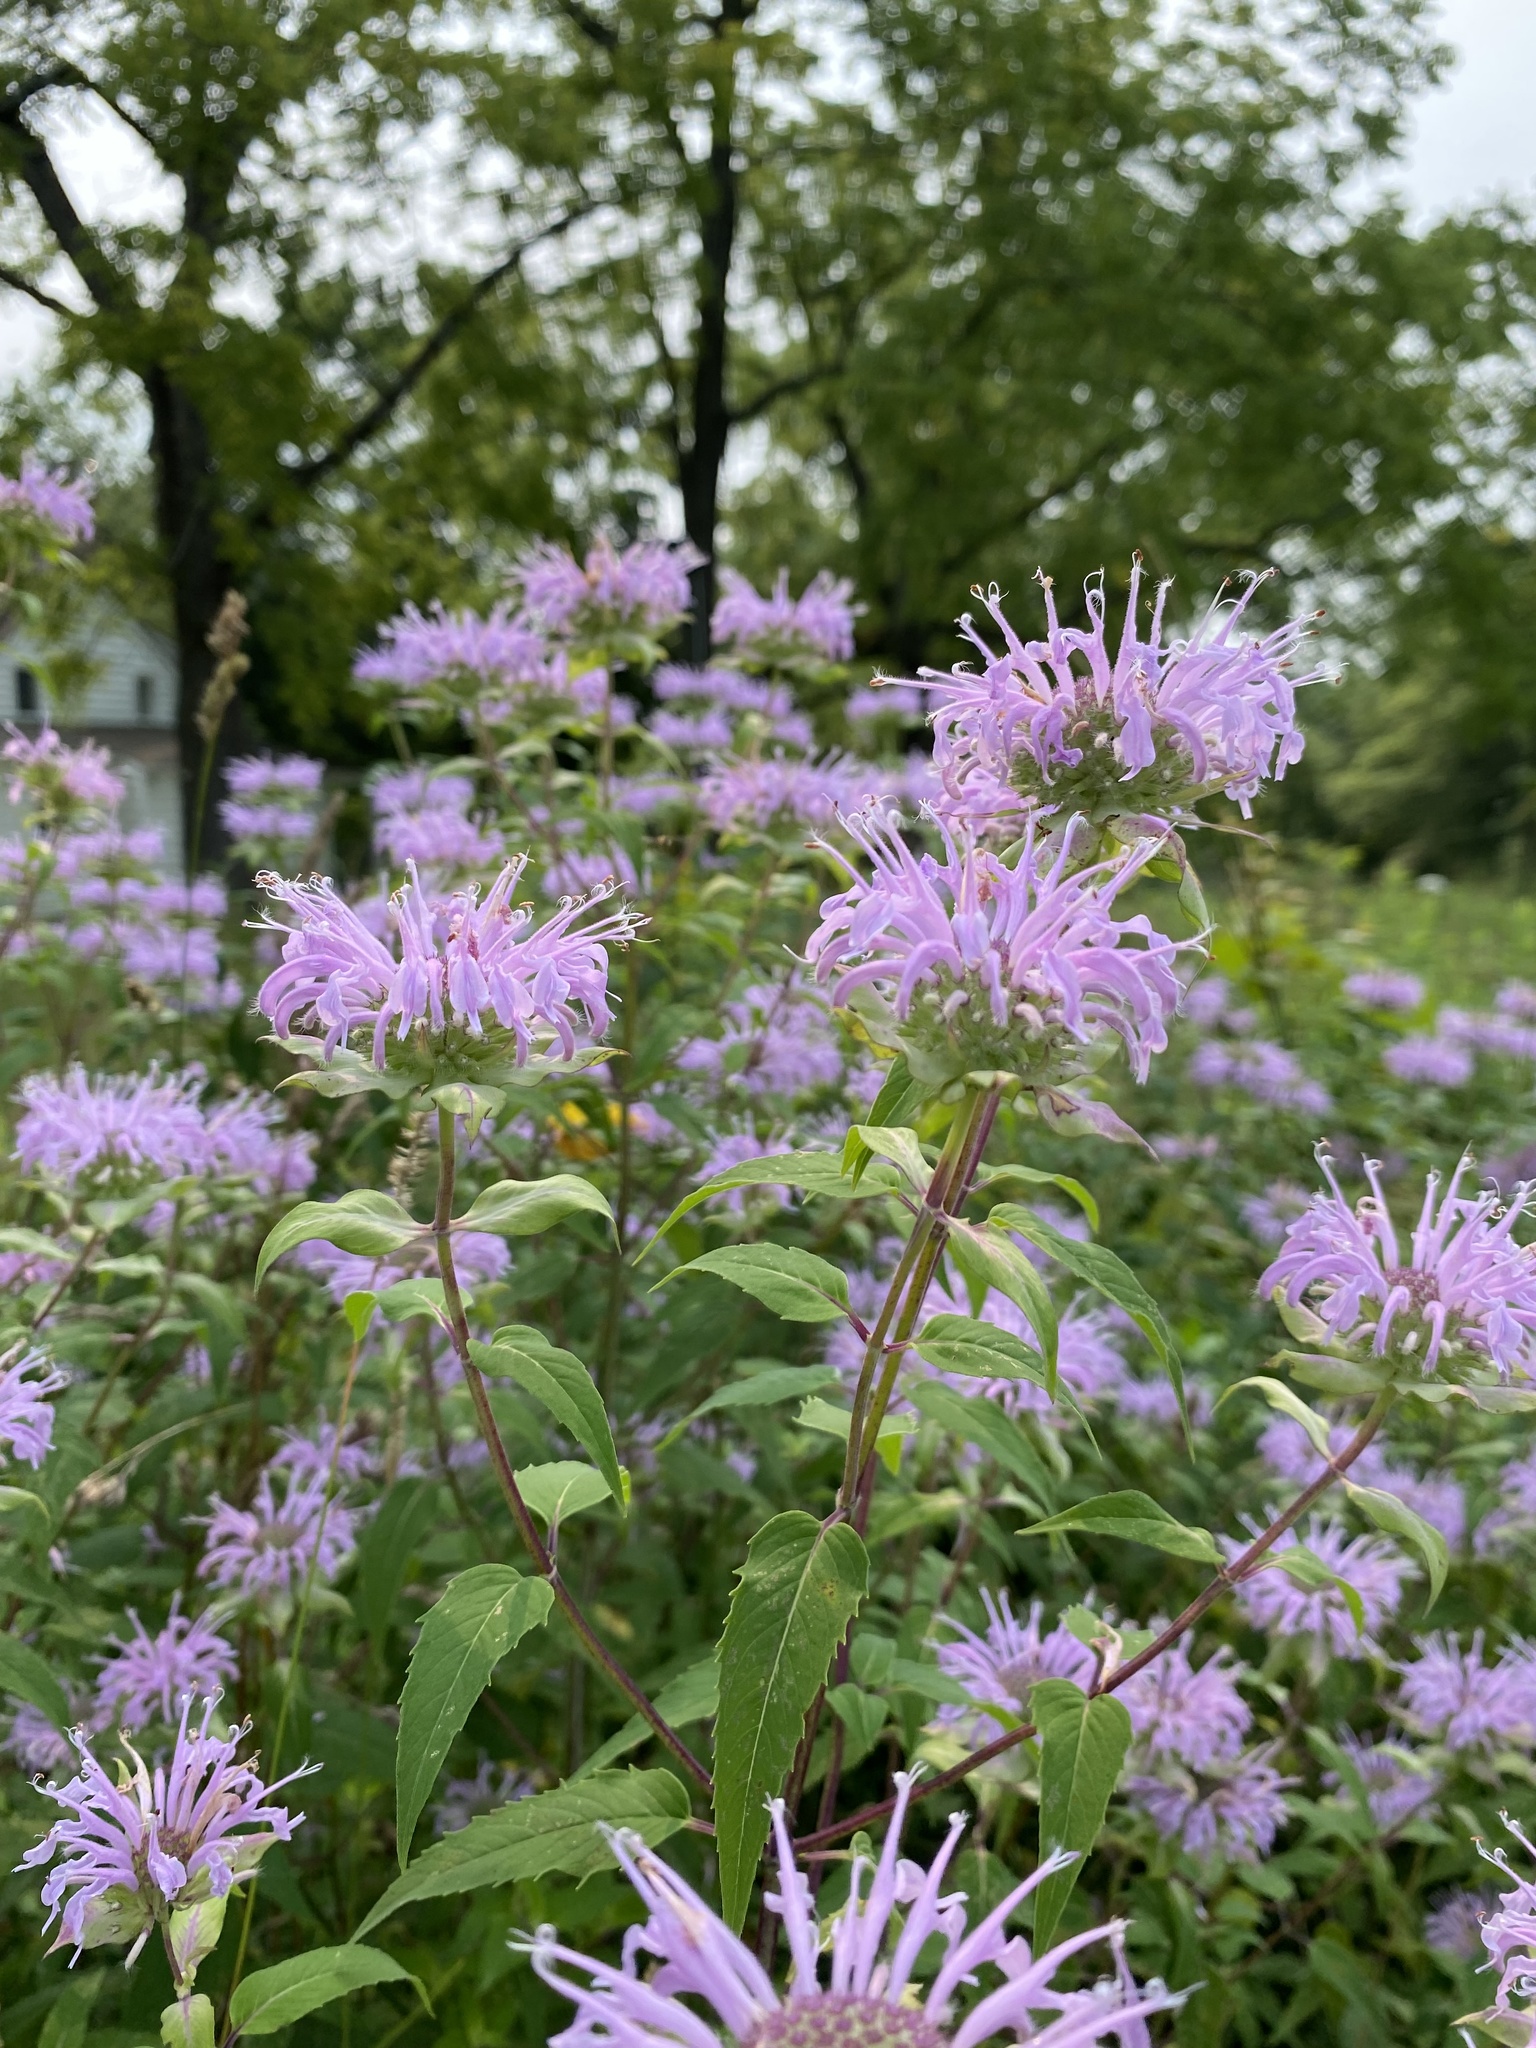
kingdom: Plantae
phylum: Tracheophyta
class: Magnoliopsida
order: Lamiales
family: Lamiaceae
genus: Monarda
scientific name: Monarda fistulosa
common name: Purple beebalm
